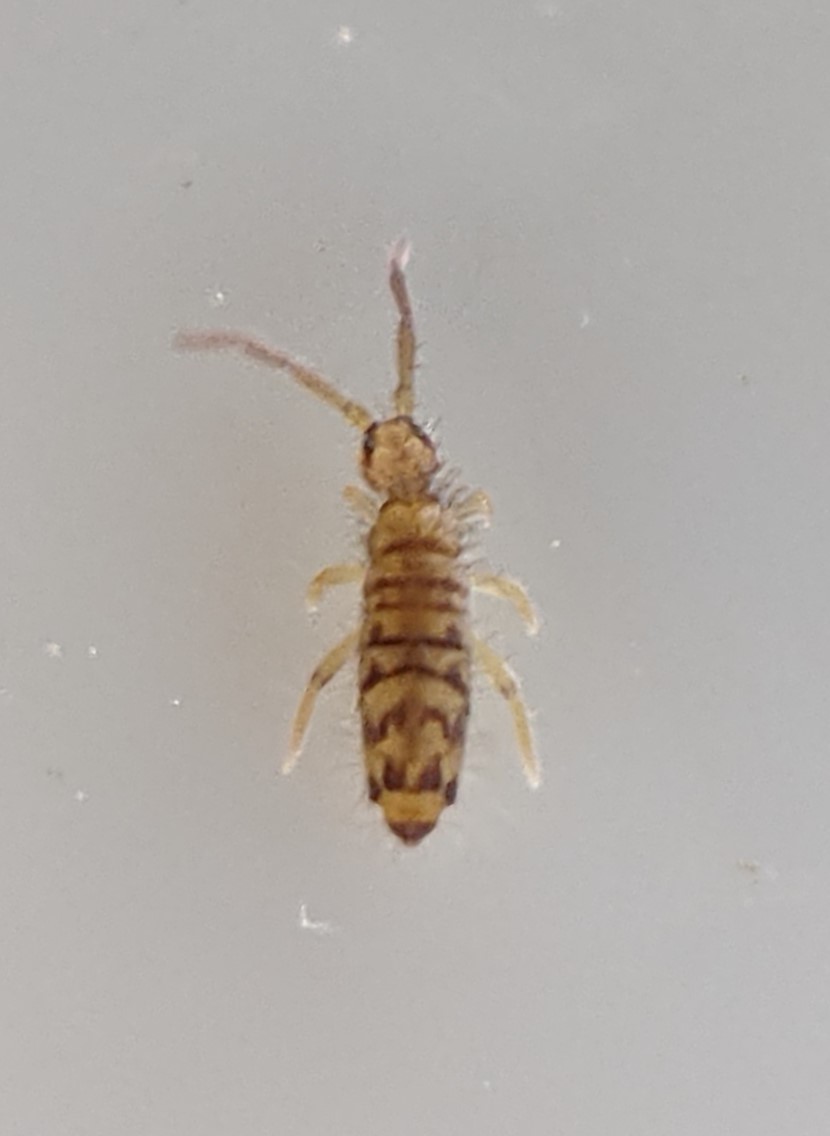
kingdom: Animalia
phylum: Arthropoda
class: Collembola
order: Entomobryomorpha
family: Entomobryidae
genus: Entomobrya
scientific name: Entomobrya multifasciata
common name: Springtail
